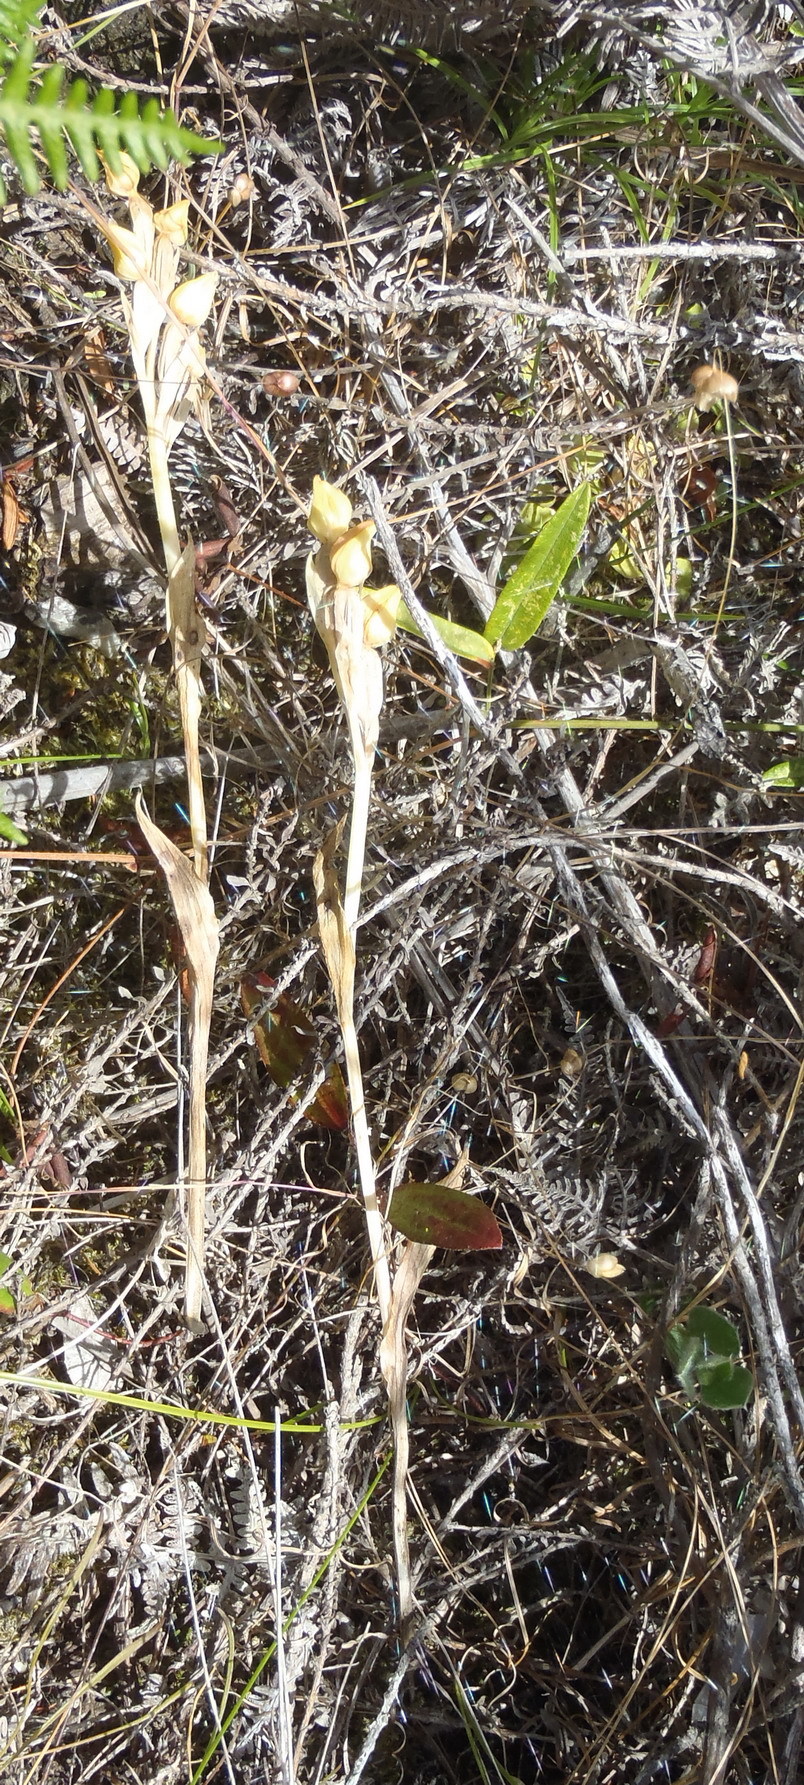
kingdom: Plantae
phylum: Tracheophyta
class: Liliopsida
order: Asparagales
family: Orchidaceae
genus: Pterygodium
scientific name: Pterygodium cleistogamum
